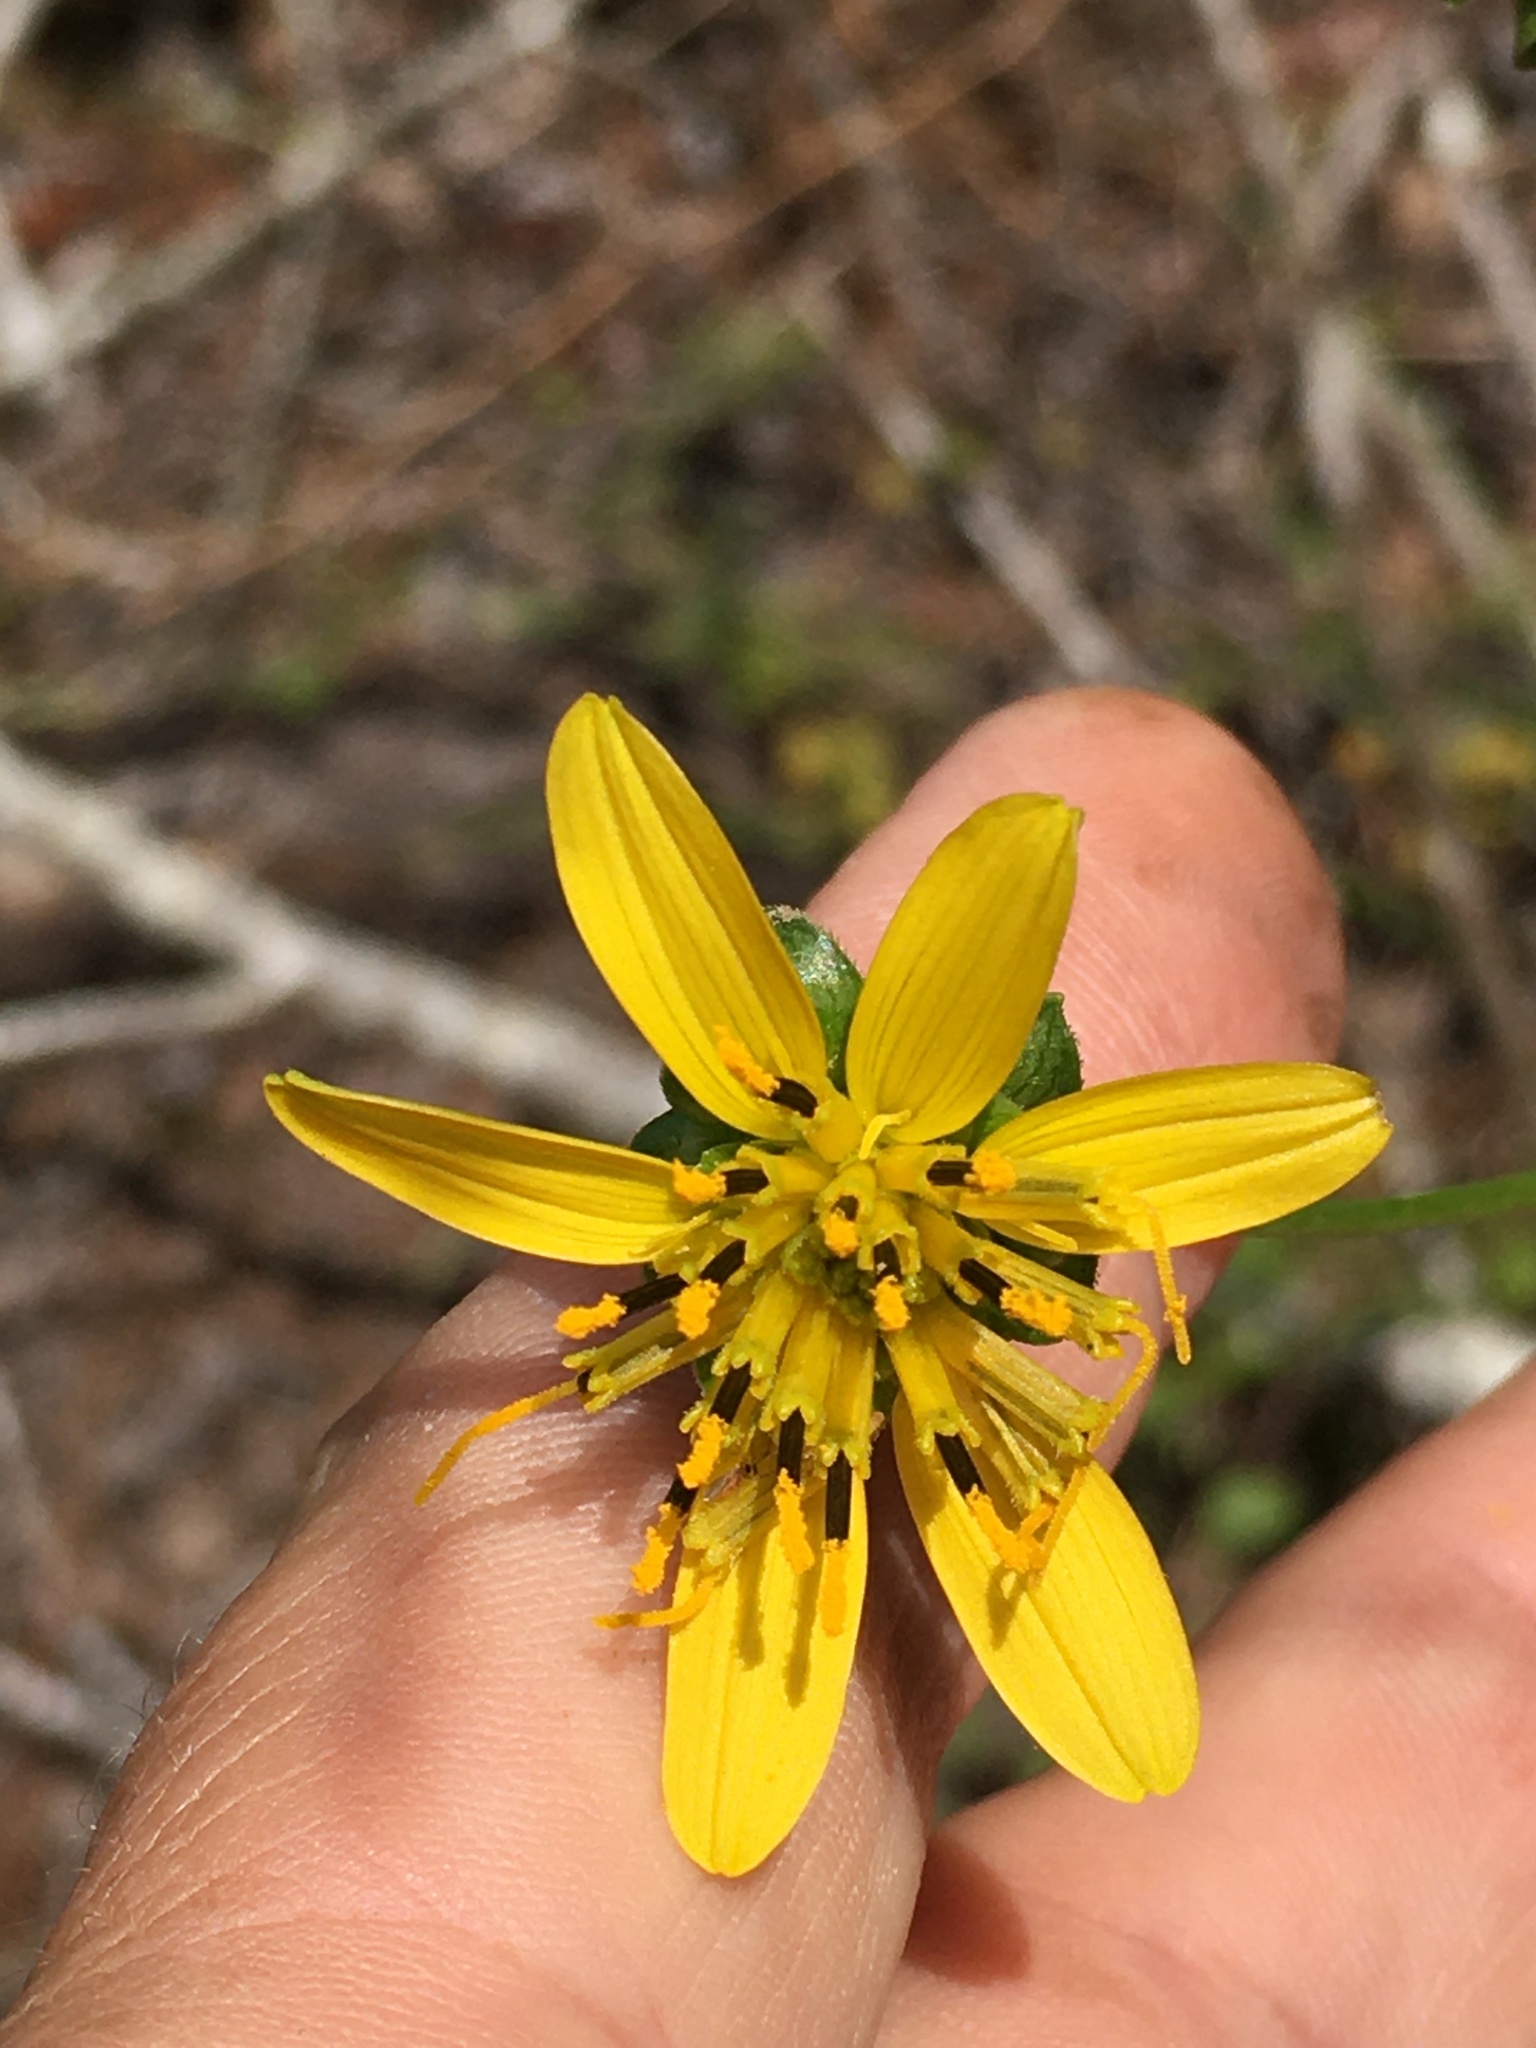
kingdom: Plantae
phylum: Tracheophyta
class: Magnoliopsida
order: Asterales
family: Asteraceae
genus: Silphium
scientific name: Silphium compositum
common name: Lesser basal-leaf rosinweed
